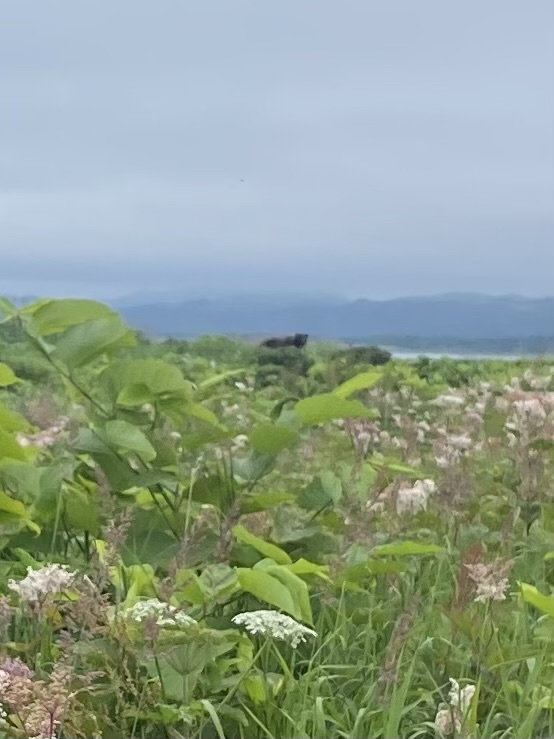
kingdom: Animalia
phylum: Chordata
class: Mammalia
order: Carnivora
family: Ursidae
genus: Ursus
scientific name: Ursus arctos
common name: Brown bear
